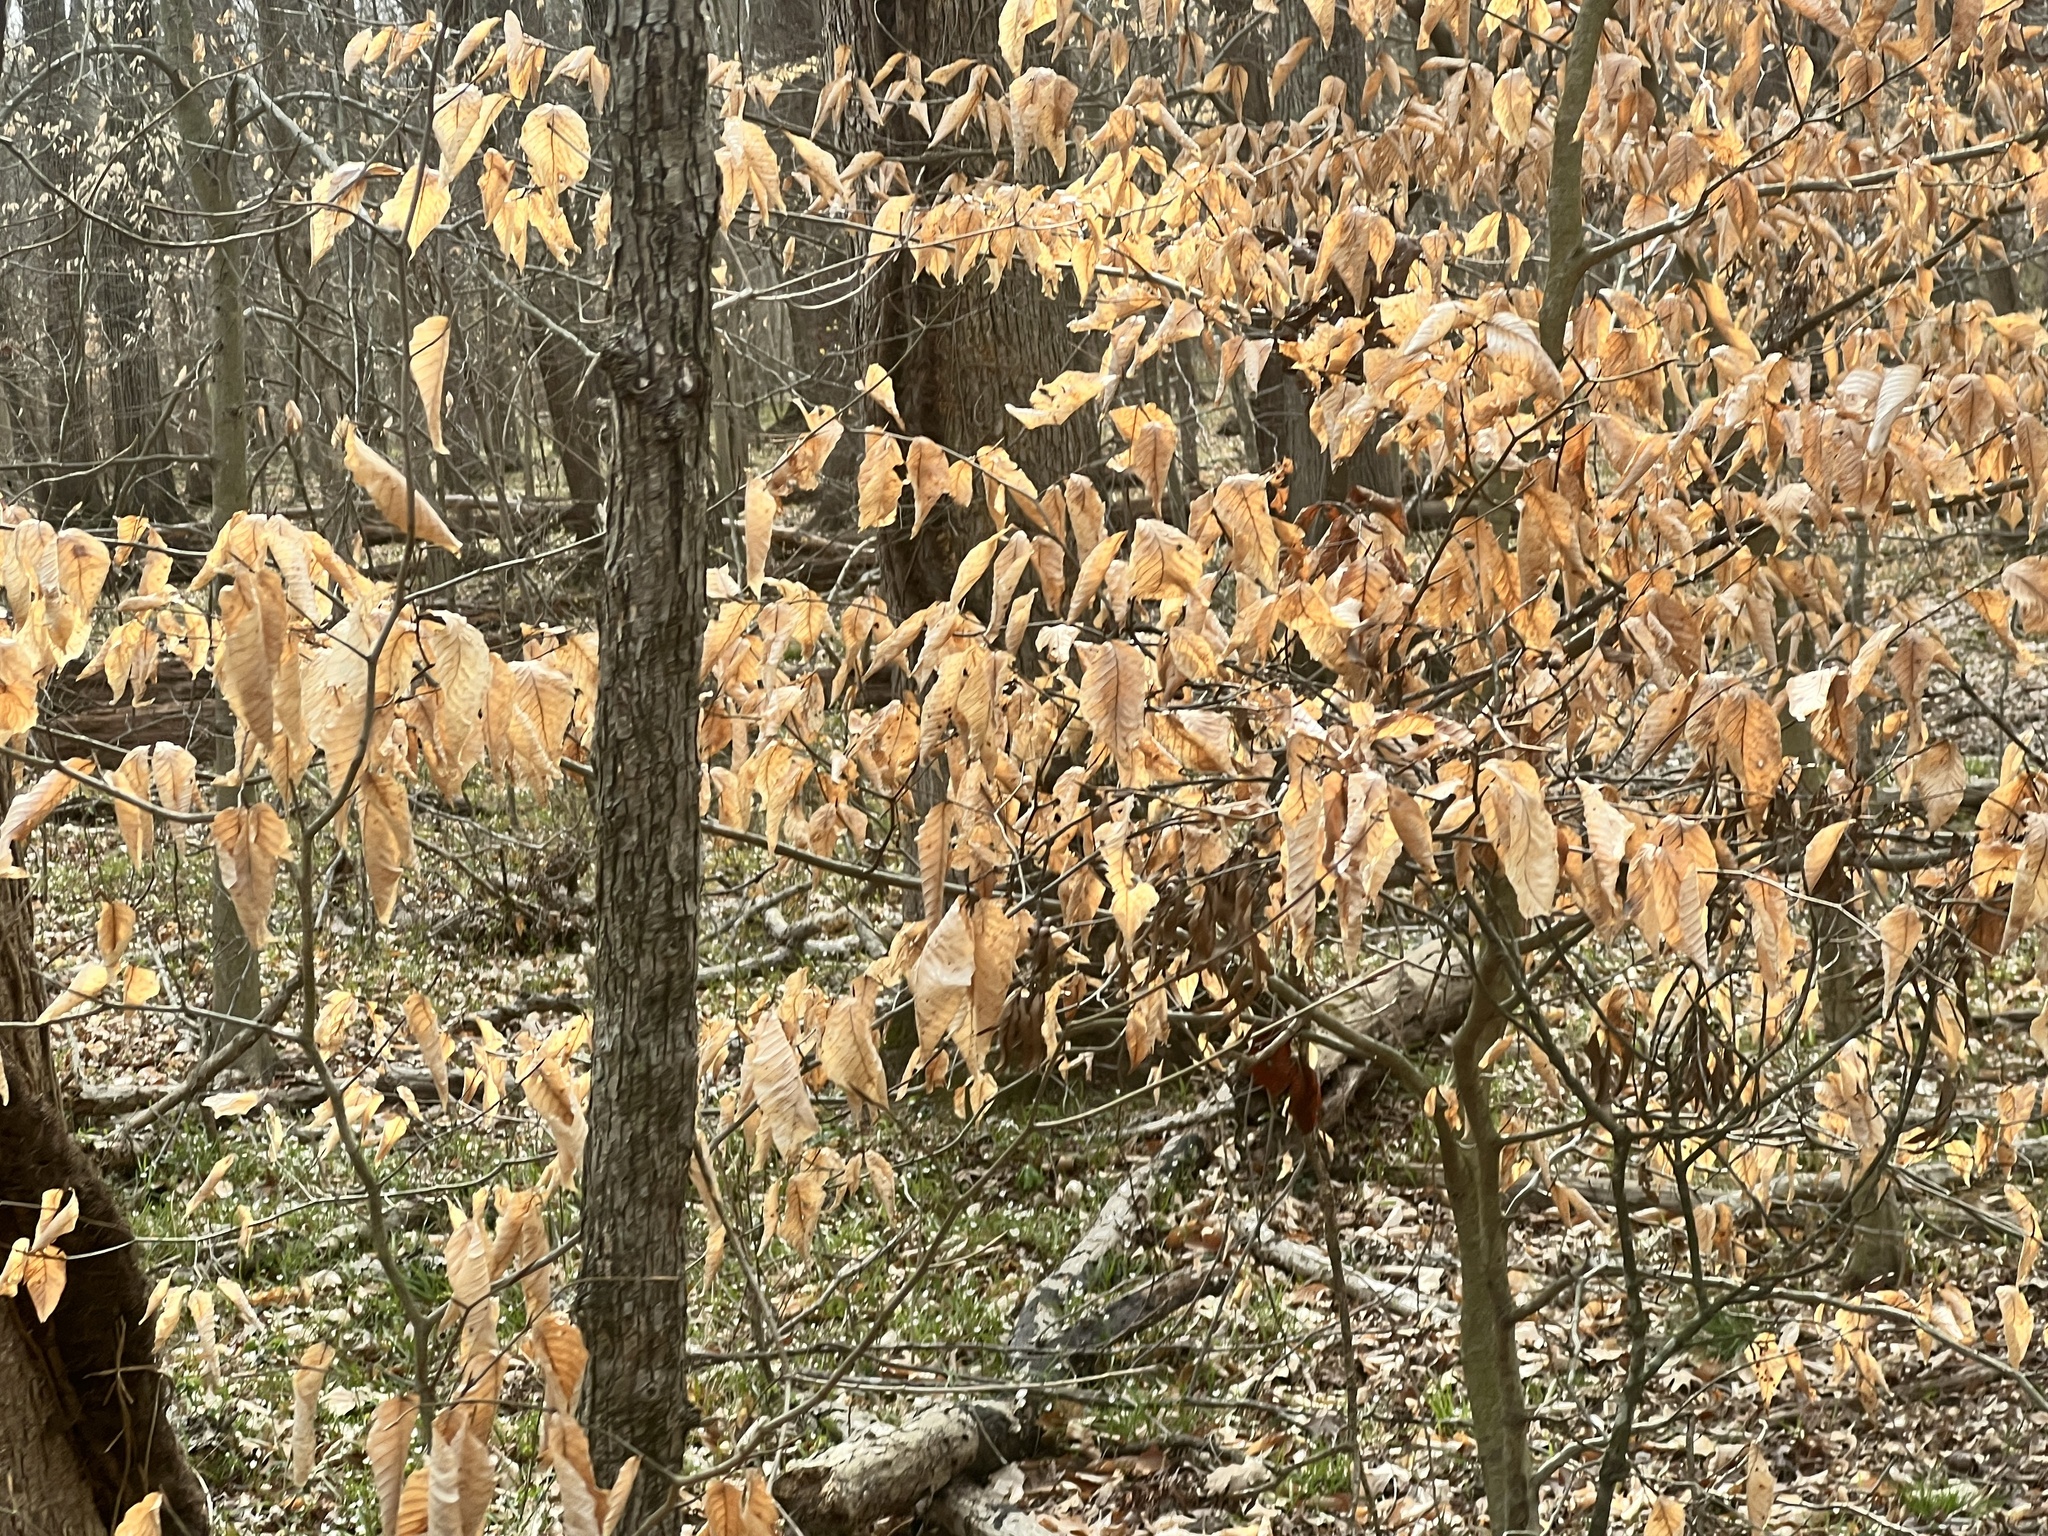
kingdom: Plantae
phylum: Tracheophyta
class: Magnoliopsida
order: Fagales
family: Fagaceae
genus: Fagus
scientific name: Fagus grandifolia
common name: American beech
